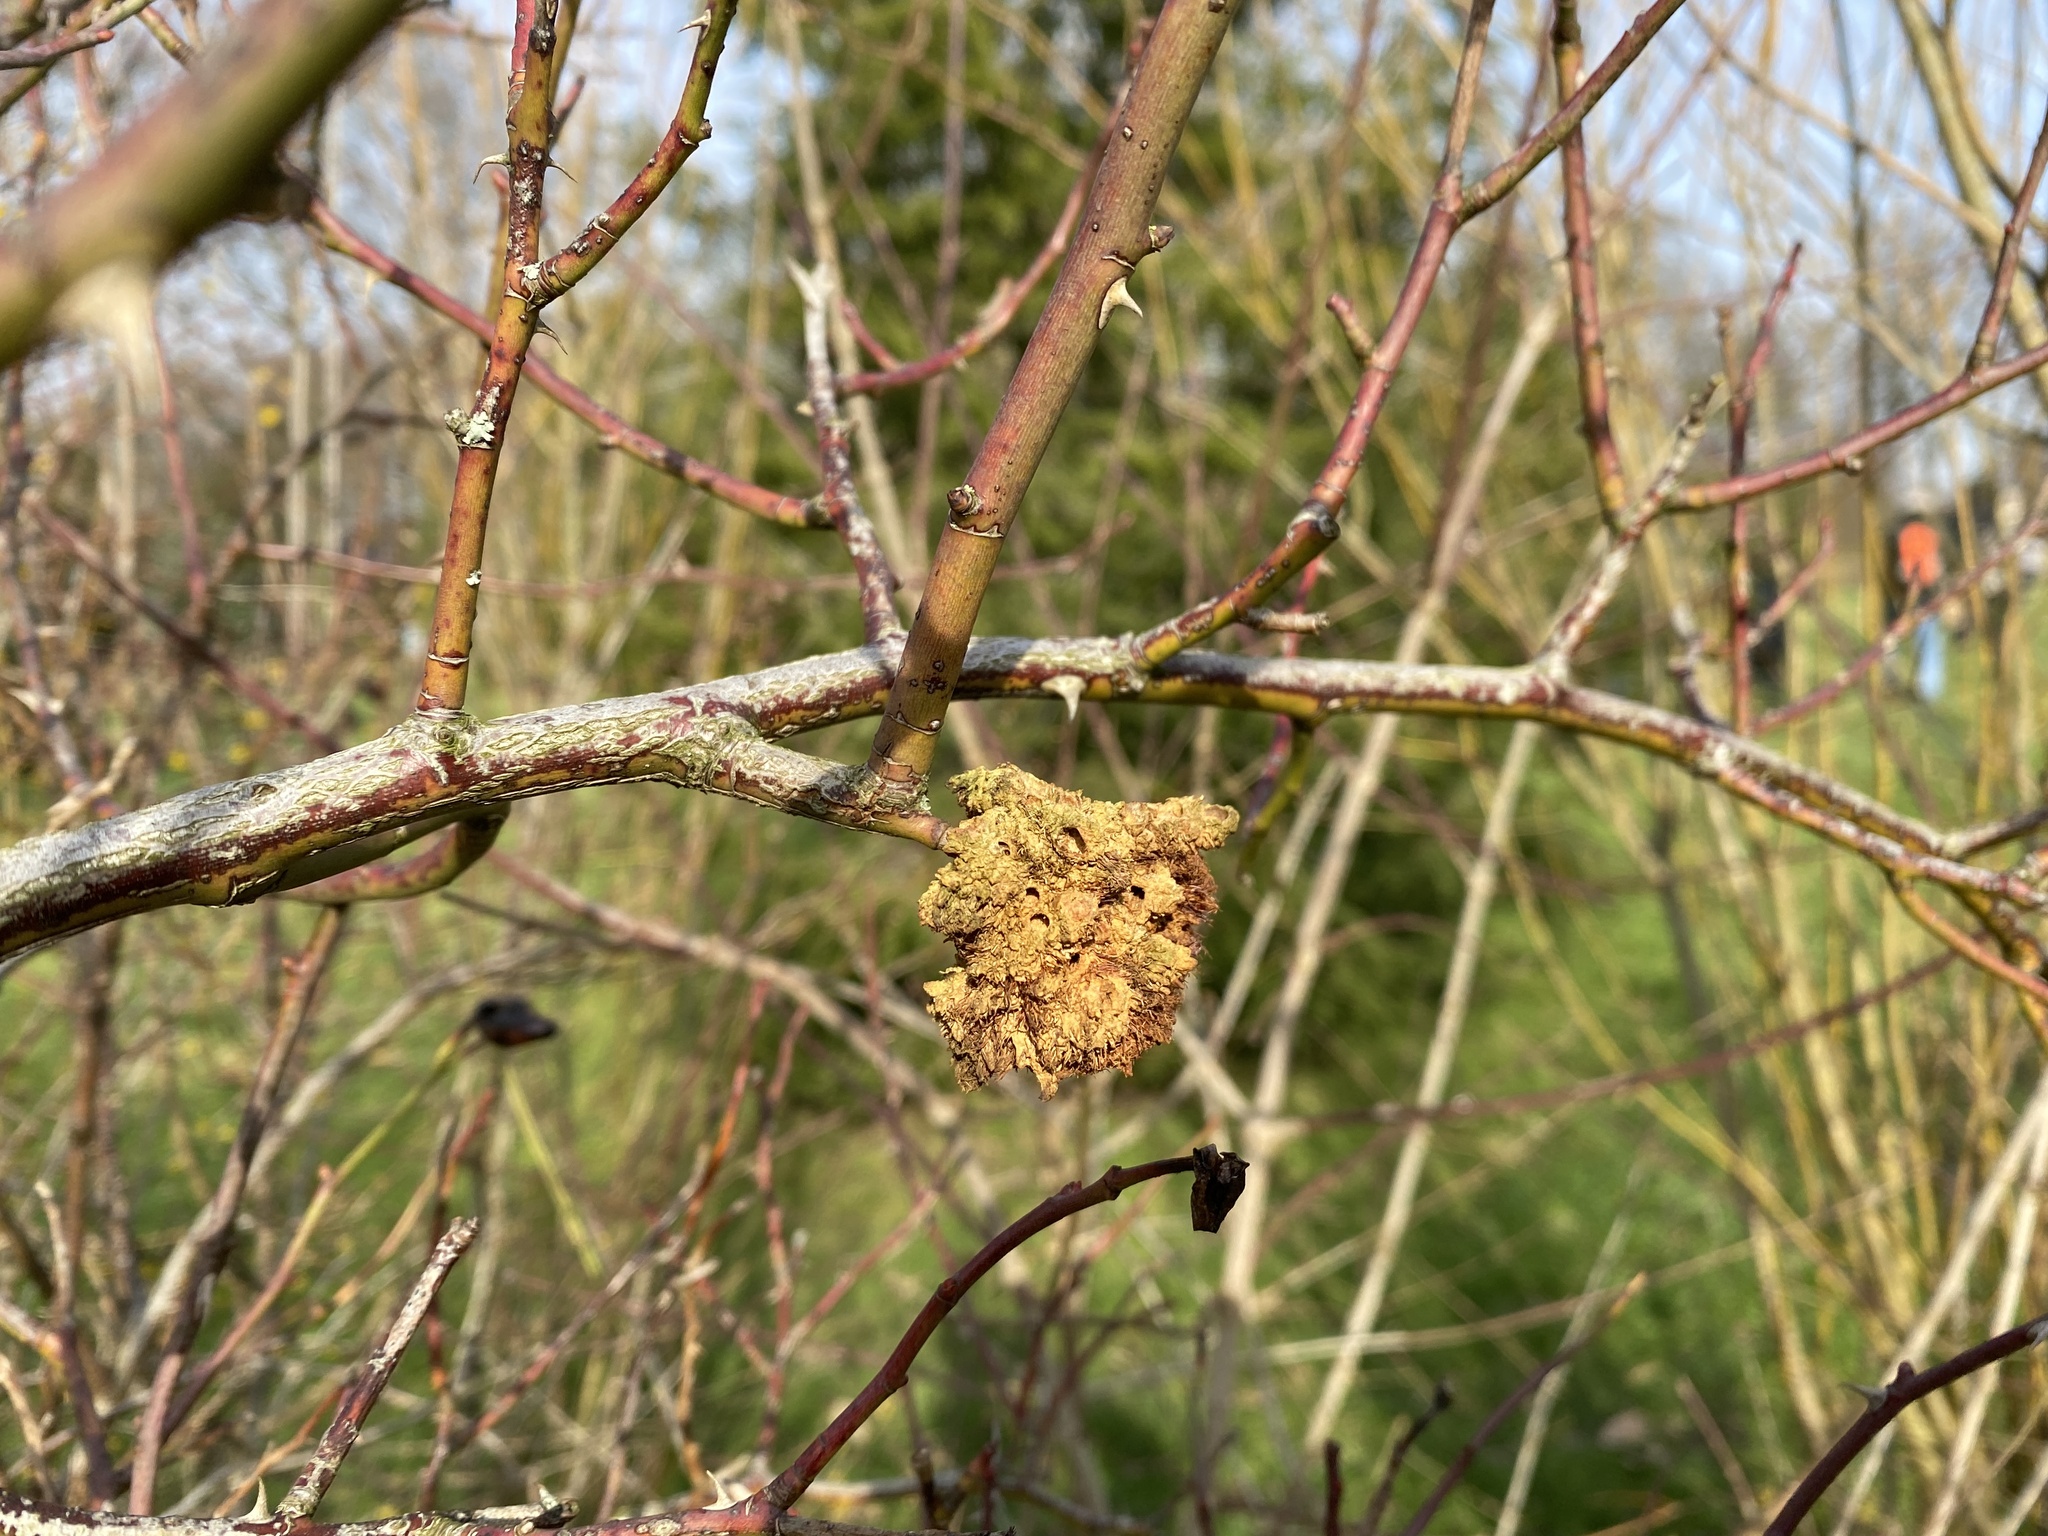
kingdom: Animalia
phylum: Arthropoda
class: Insecta
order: Hymenoptera
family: Cynipidae
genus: Diplolepis
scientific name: Diplolepis rosae
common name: Bedeguar gall
